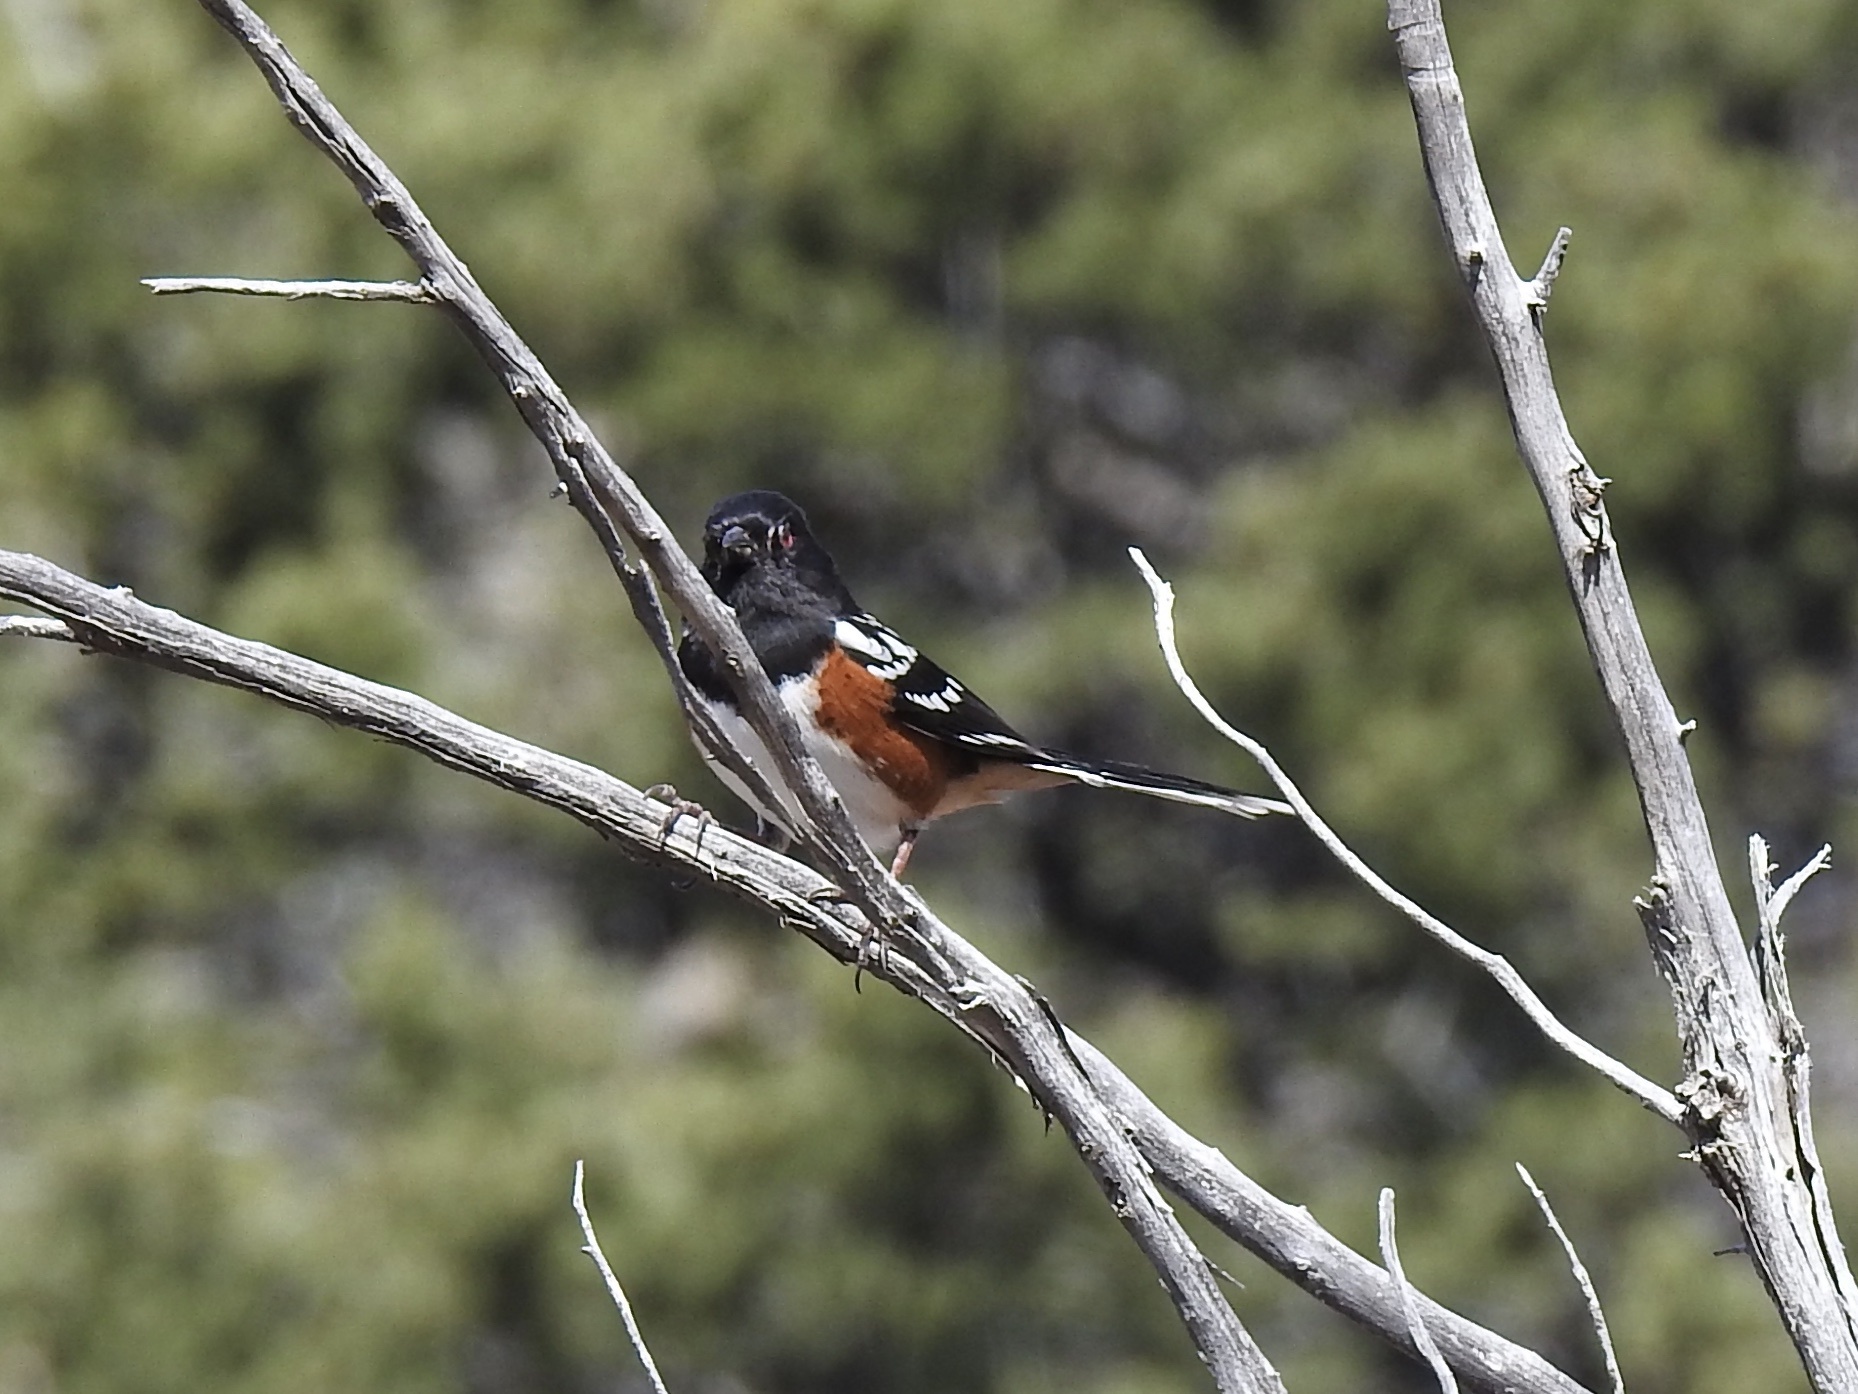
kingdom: Animalia
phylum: Chordata
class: Aves
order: Passeriformes
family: Passerellidae
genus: Pipilo
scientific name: Pipilo maculatus
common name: Spotted towhee
